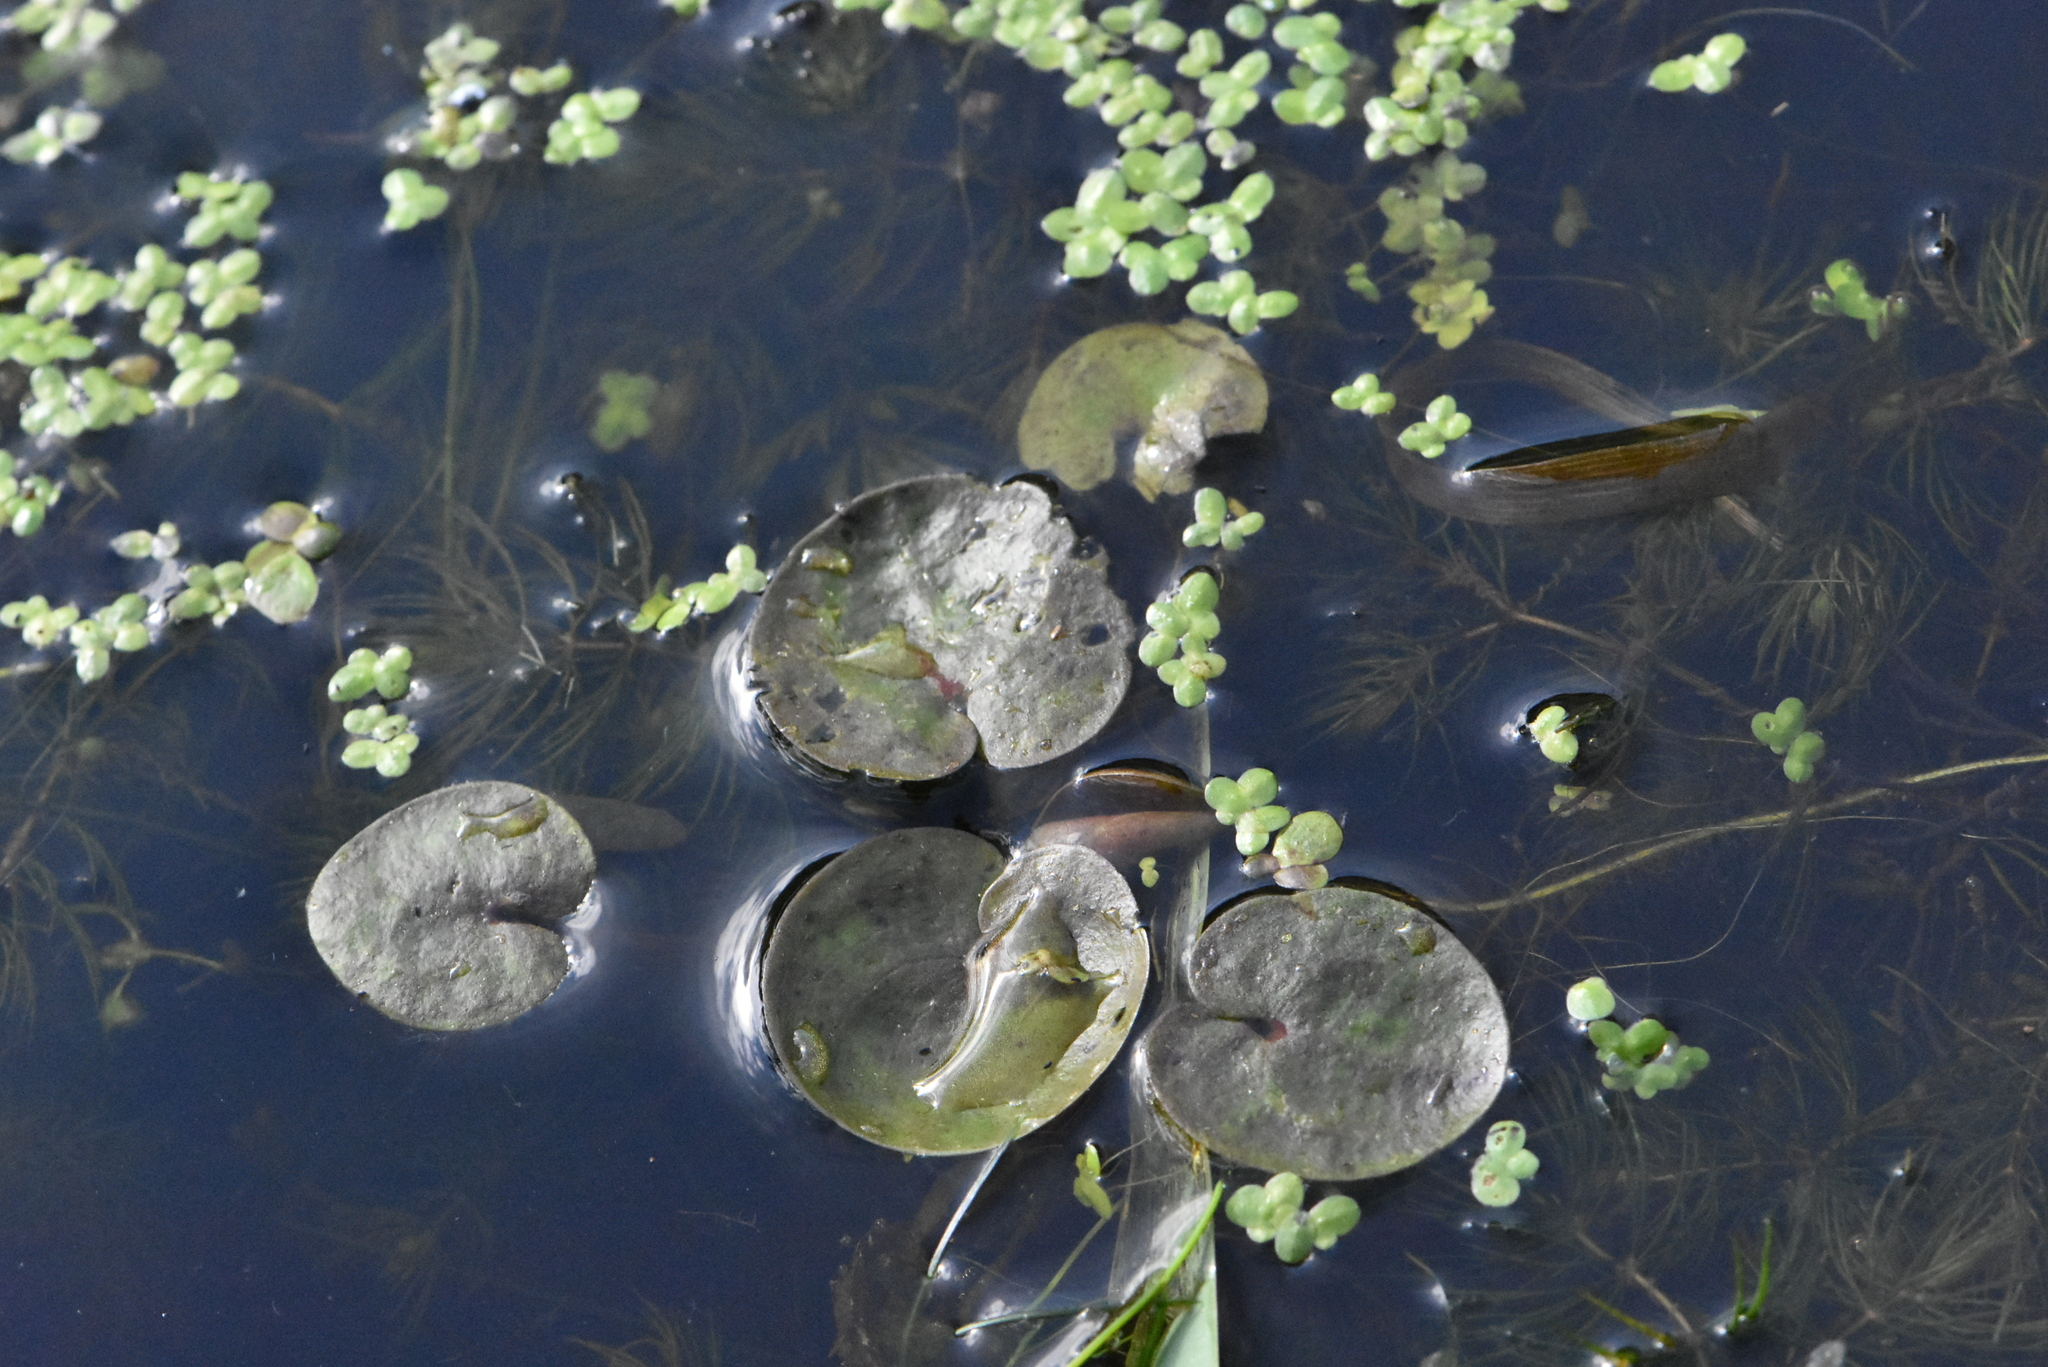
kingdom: Plantae
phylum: Tracheophyta
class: Liliopsida
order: Alismatales
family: Hydrocharitaceae
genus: Hydrocharis
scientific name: Hydrocharis morsus-ranae
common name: Frogbit
